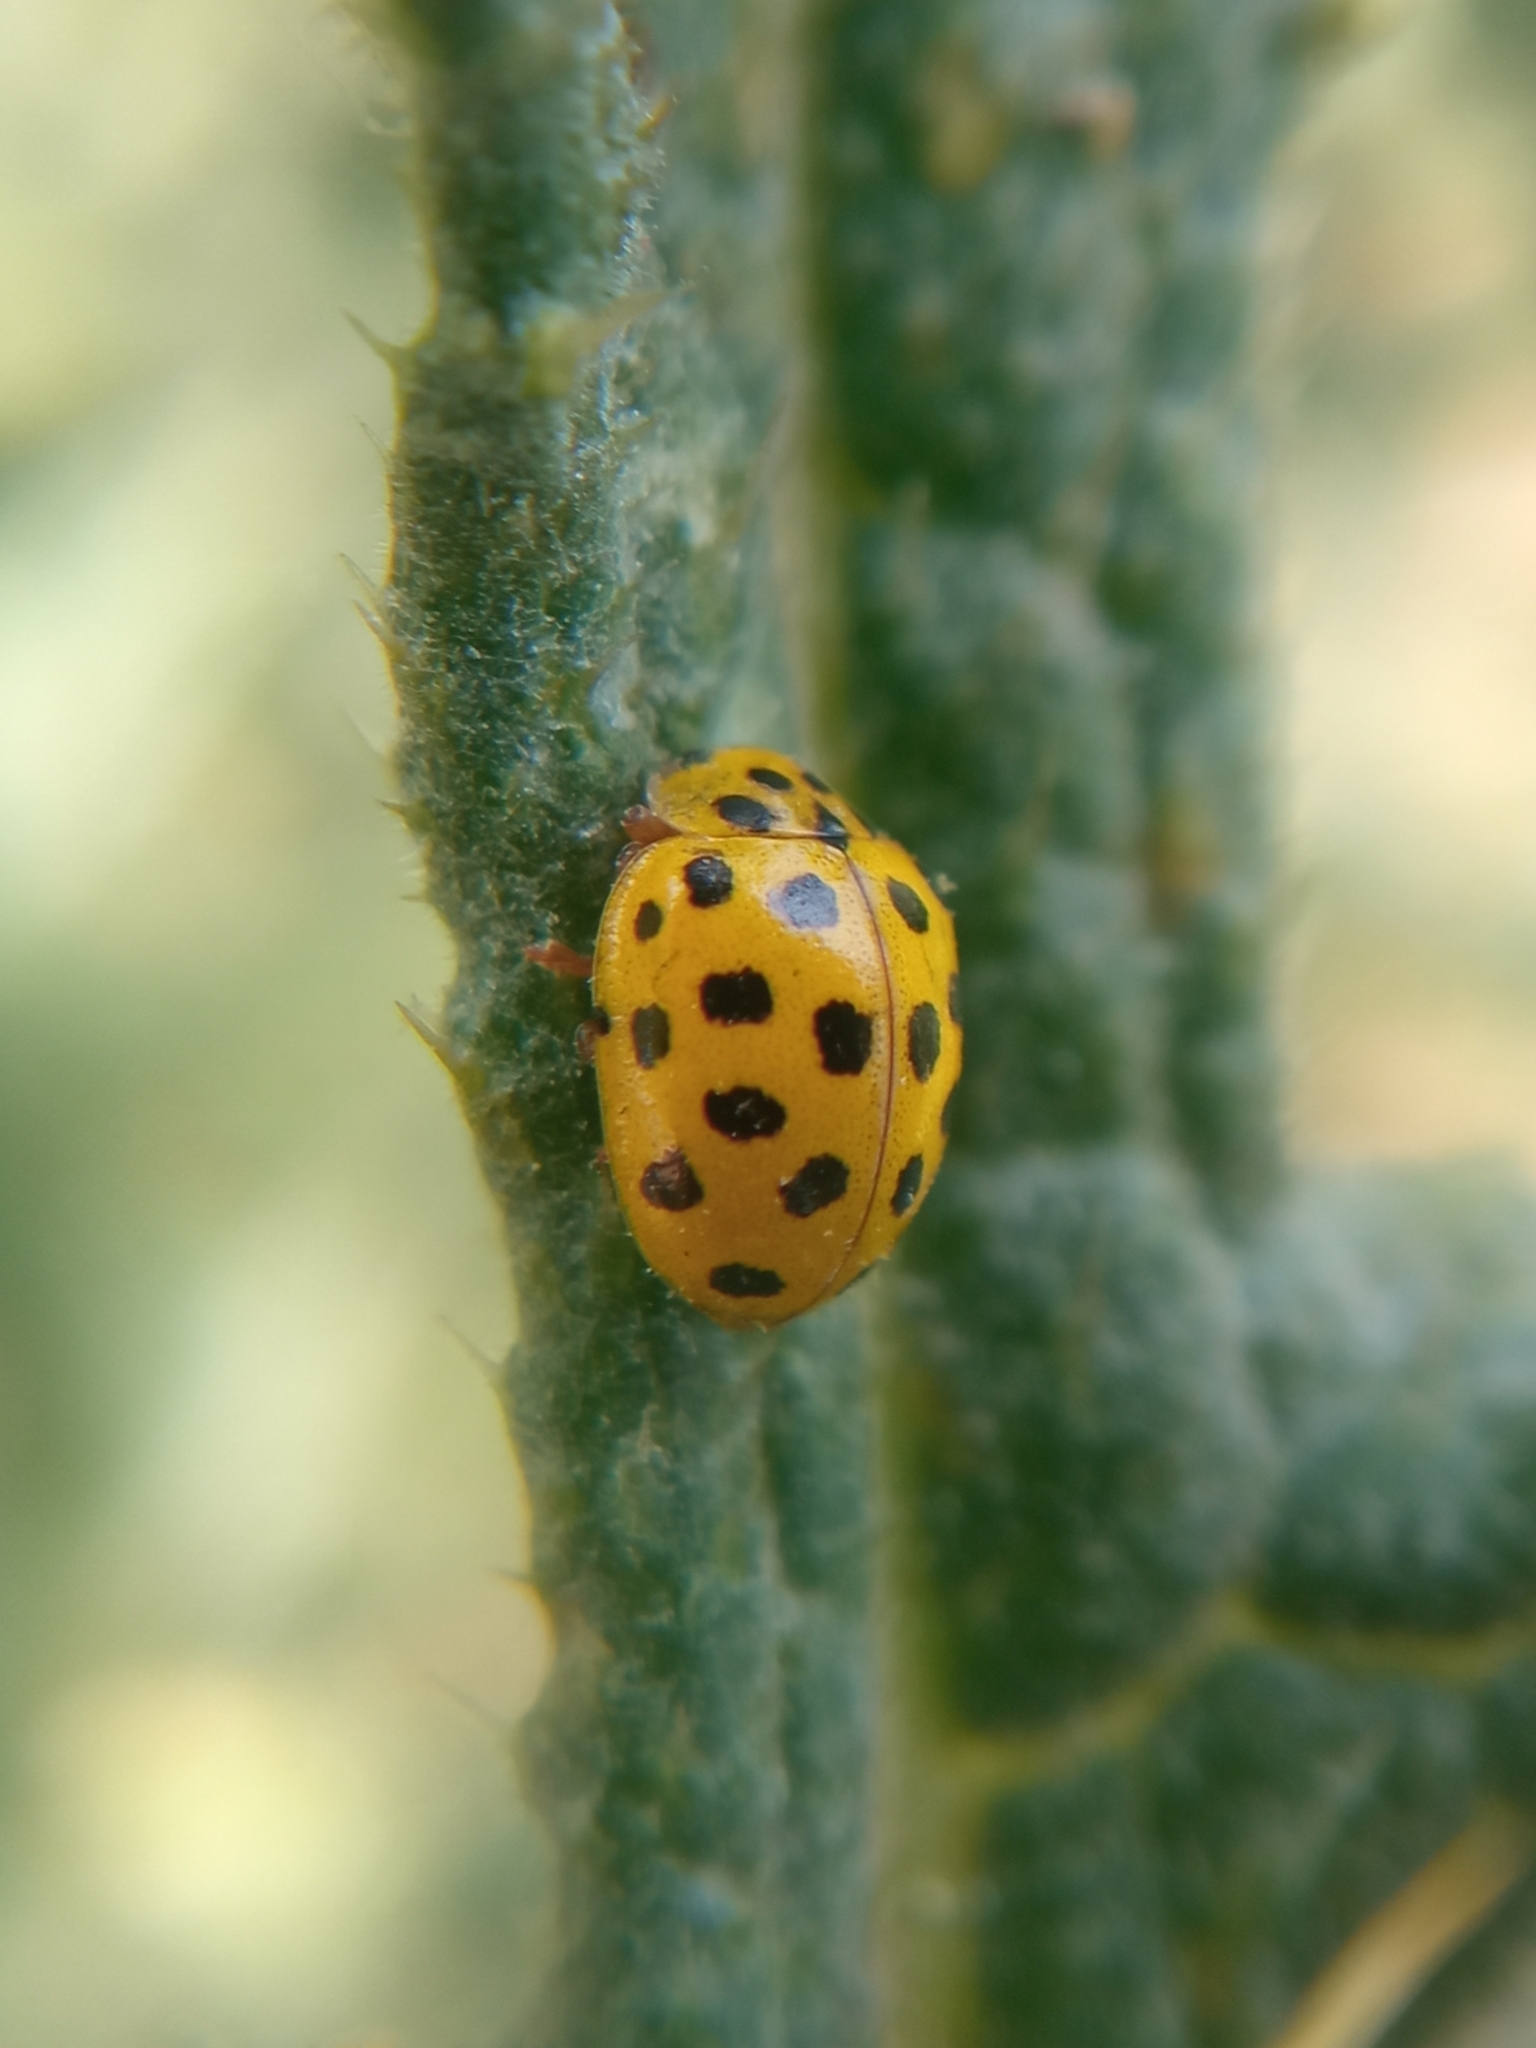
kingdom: Animalia
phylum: Arthropoda
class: Insecta
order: Coleoptera
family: Coccinellidae
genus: Psyllobora
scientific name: Psyllobora vigintiduopunctata
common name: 22-spot ladybird
